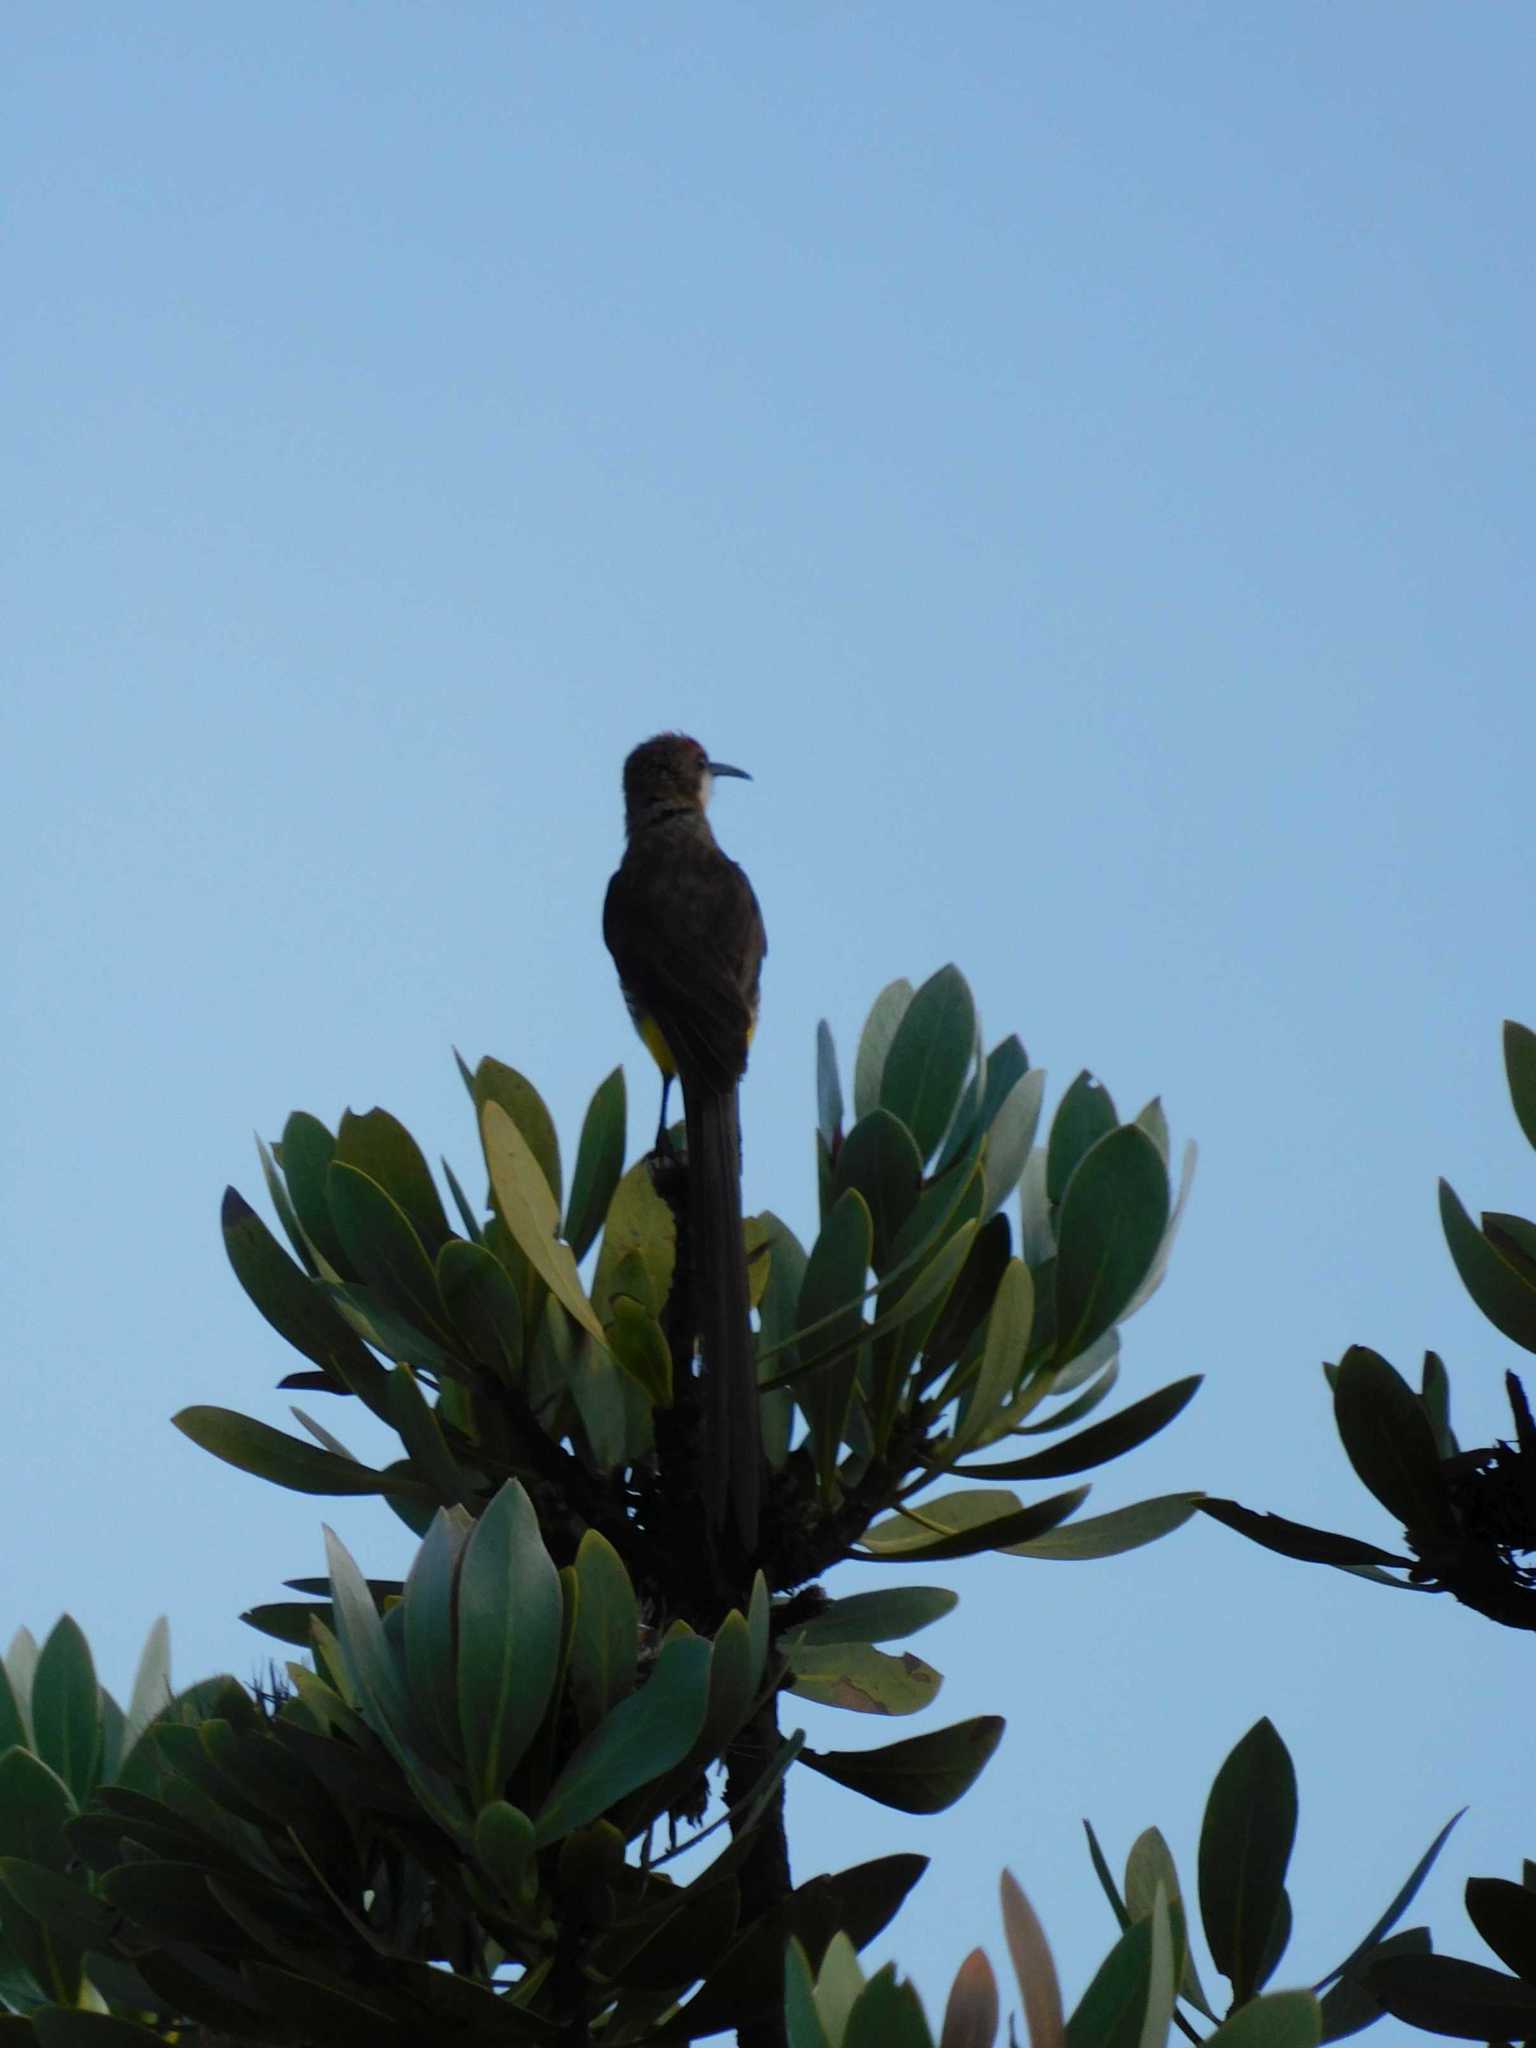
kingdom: Animalia
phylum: Chordata
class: Aves
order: Passeriformes
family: Promeropidae
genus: Promerops
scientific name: Promerops gurneyi
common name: Gurney's sugarbird
